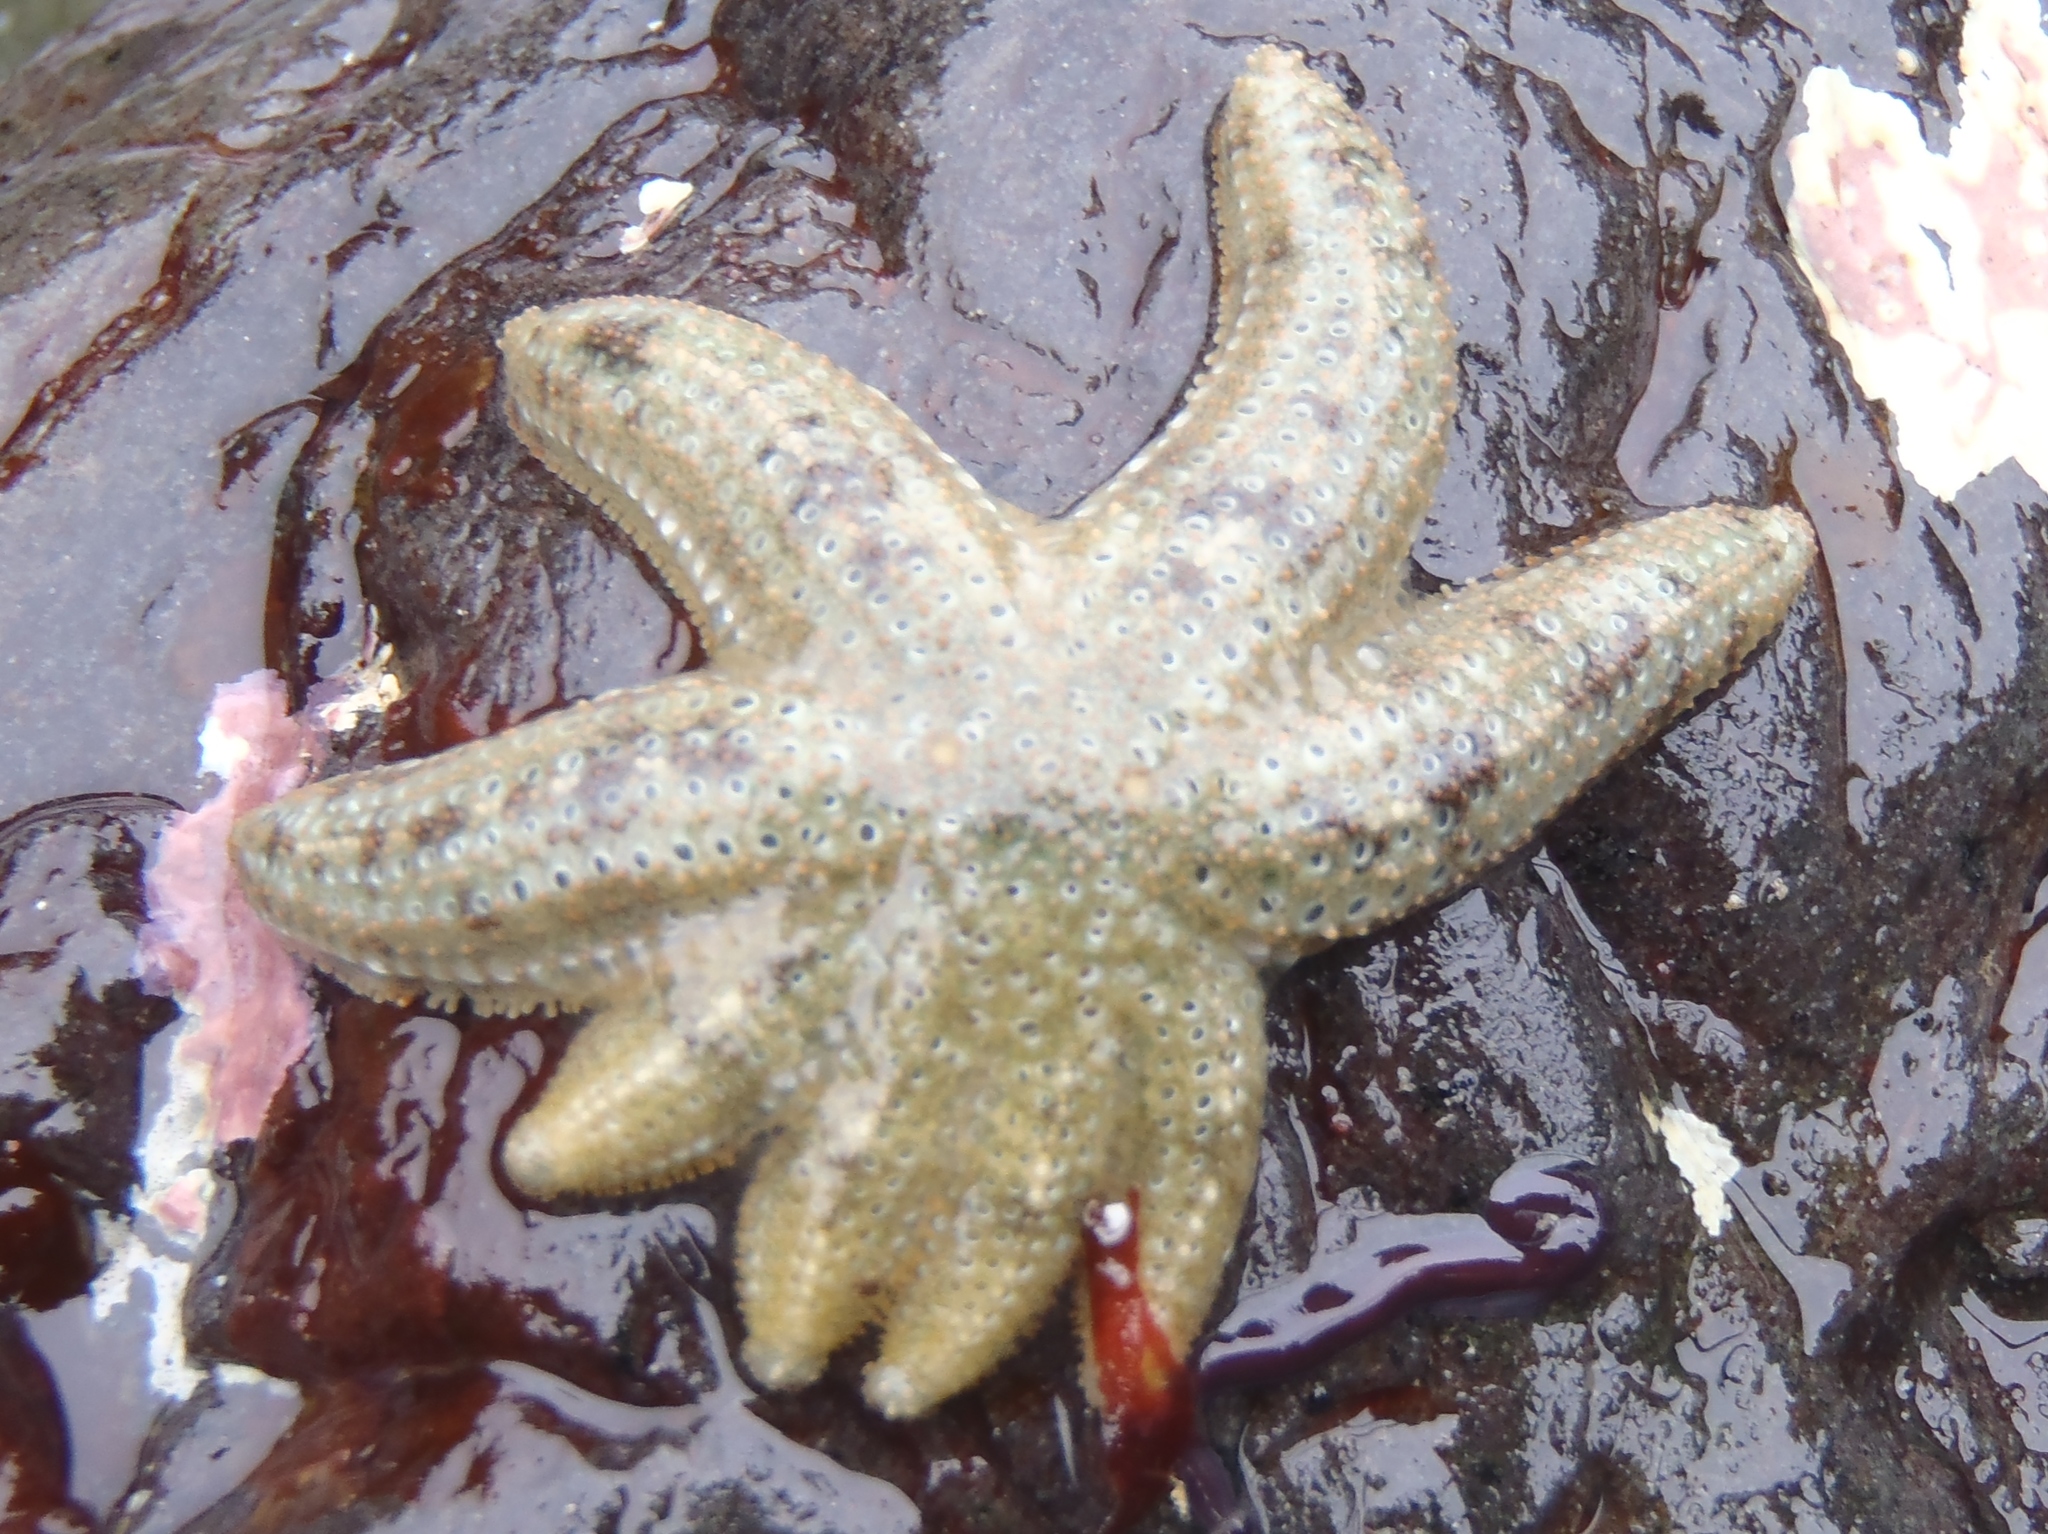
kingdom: Animalia
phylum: Echinodermata
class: Asteroidea
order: Forcipulatida
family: Stichasteridae
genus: Allostichaster
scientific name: Allostichaster polyplax
